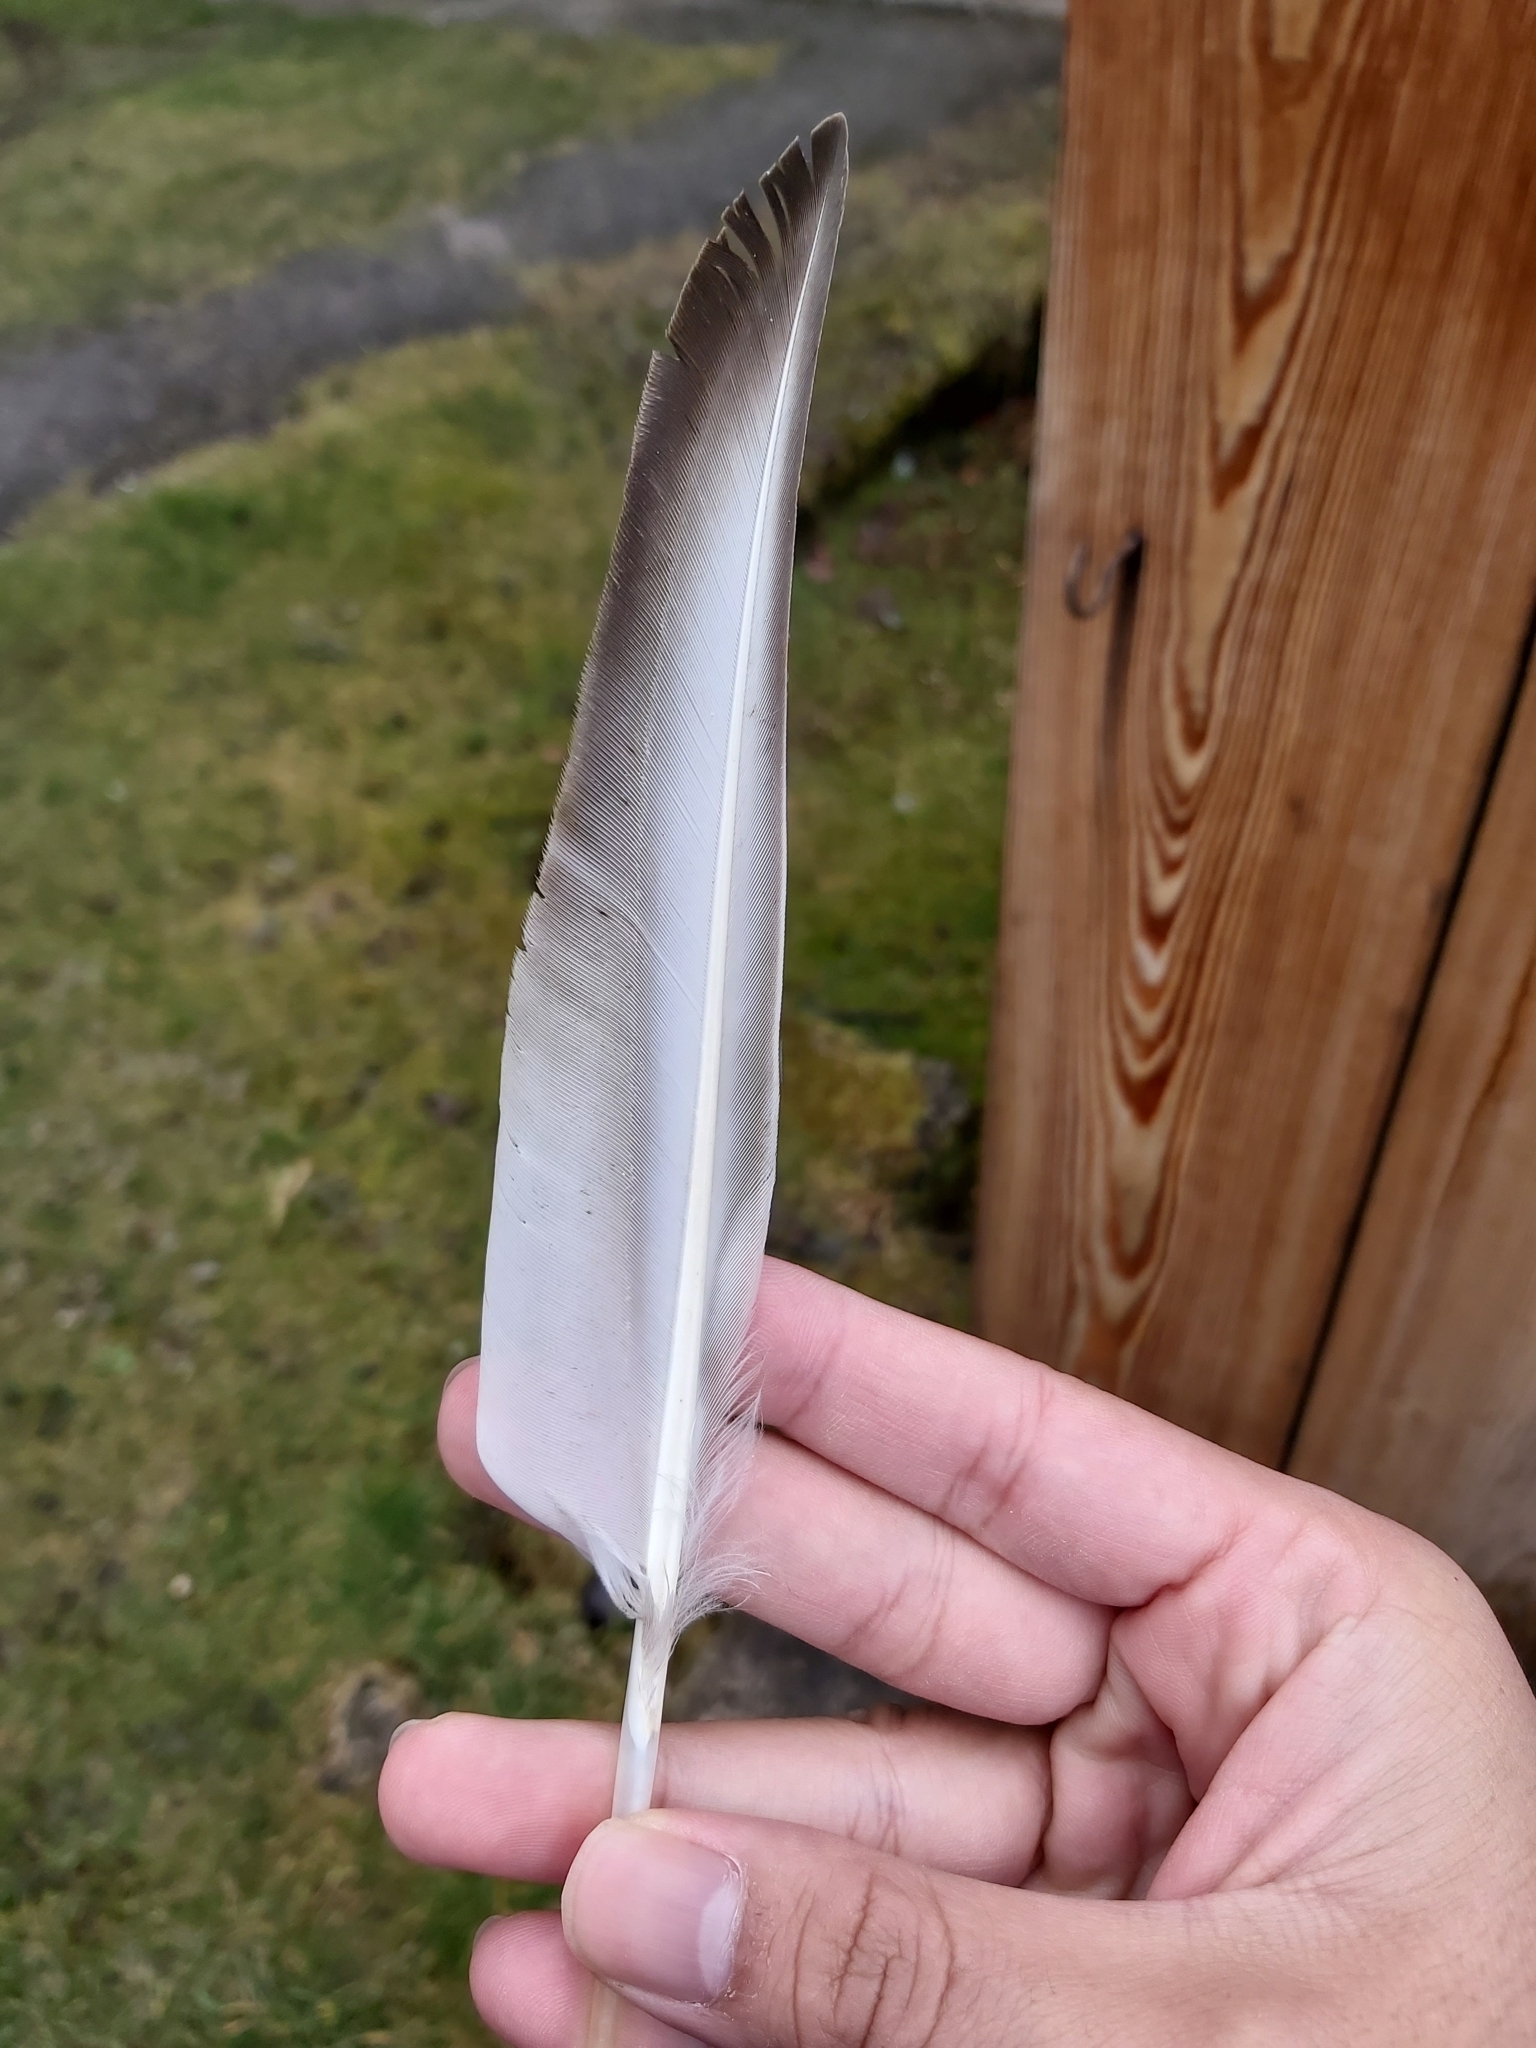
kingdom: Animalia
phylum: Chordata
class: Aves
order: Anseriformes
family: Anatidae
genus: Anas
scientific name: Anas platyrhynchos
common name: Mallard
